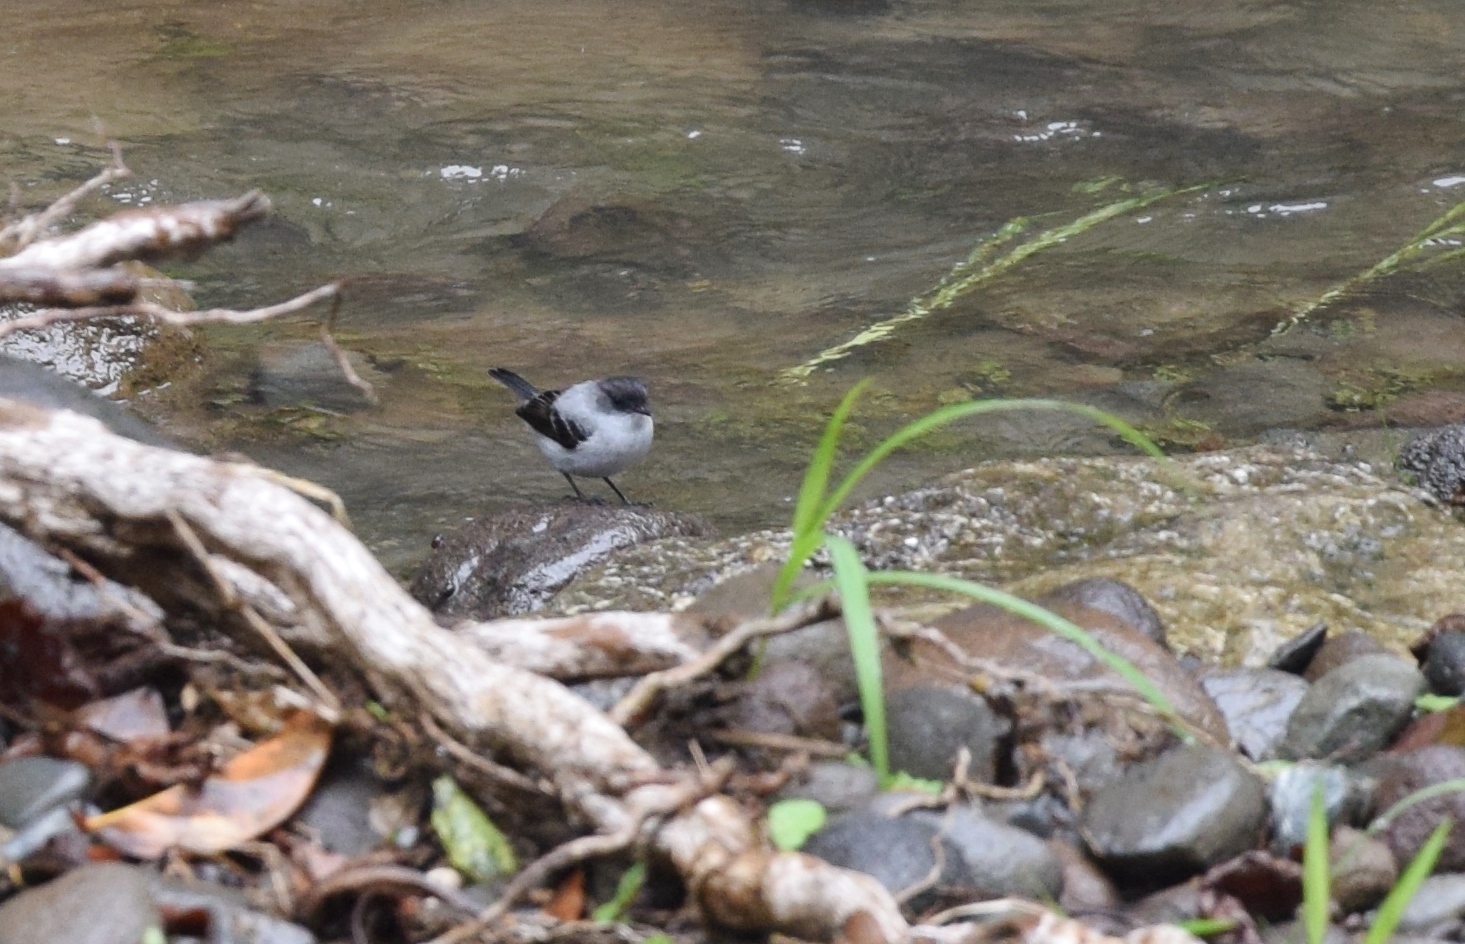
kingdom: Animalia
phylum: Chordata
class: Aves
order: Passeriformes
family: Tyrannidae
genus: Serpophaga
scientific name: Serpophaga cinerea
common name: Torrent tyrannulet
